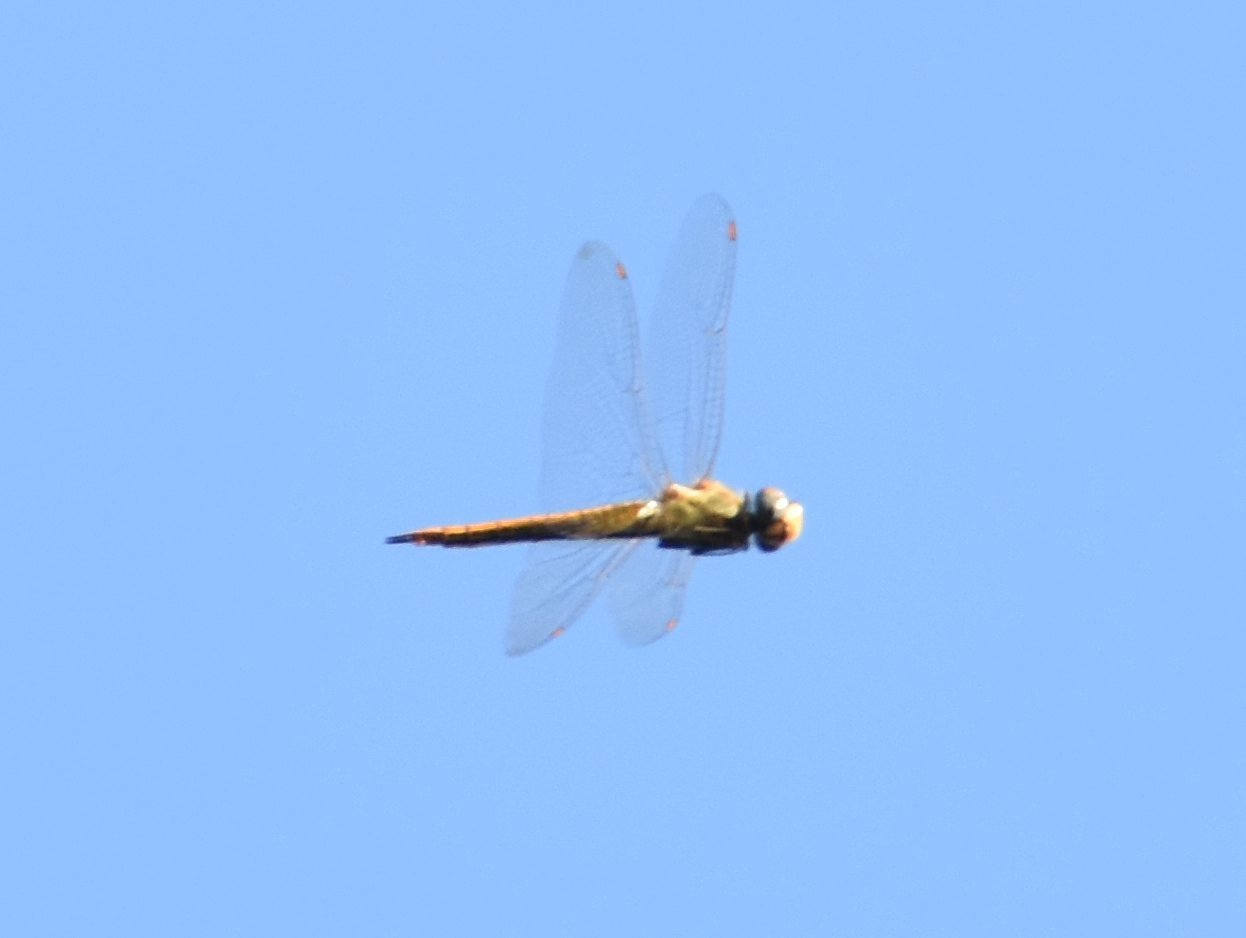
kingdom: Animalia
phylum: Arthropoda
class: Insecta
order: Odonata
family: Libellulidae
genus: Pantala
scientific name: Pantala flavescens
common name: Wandering glider
